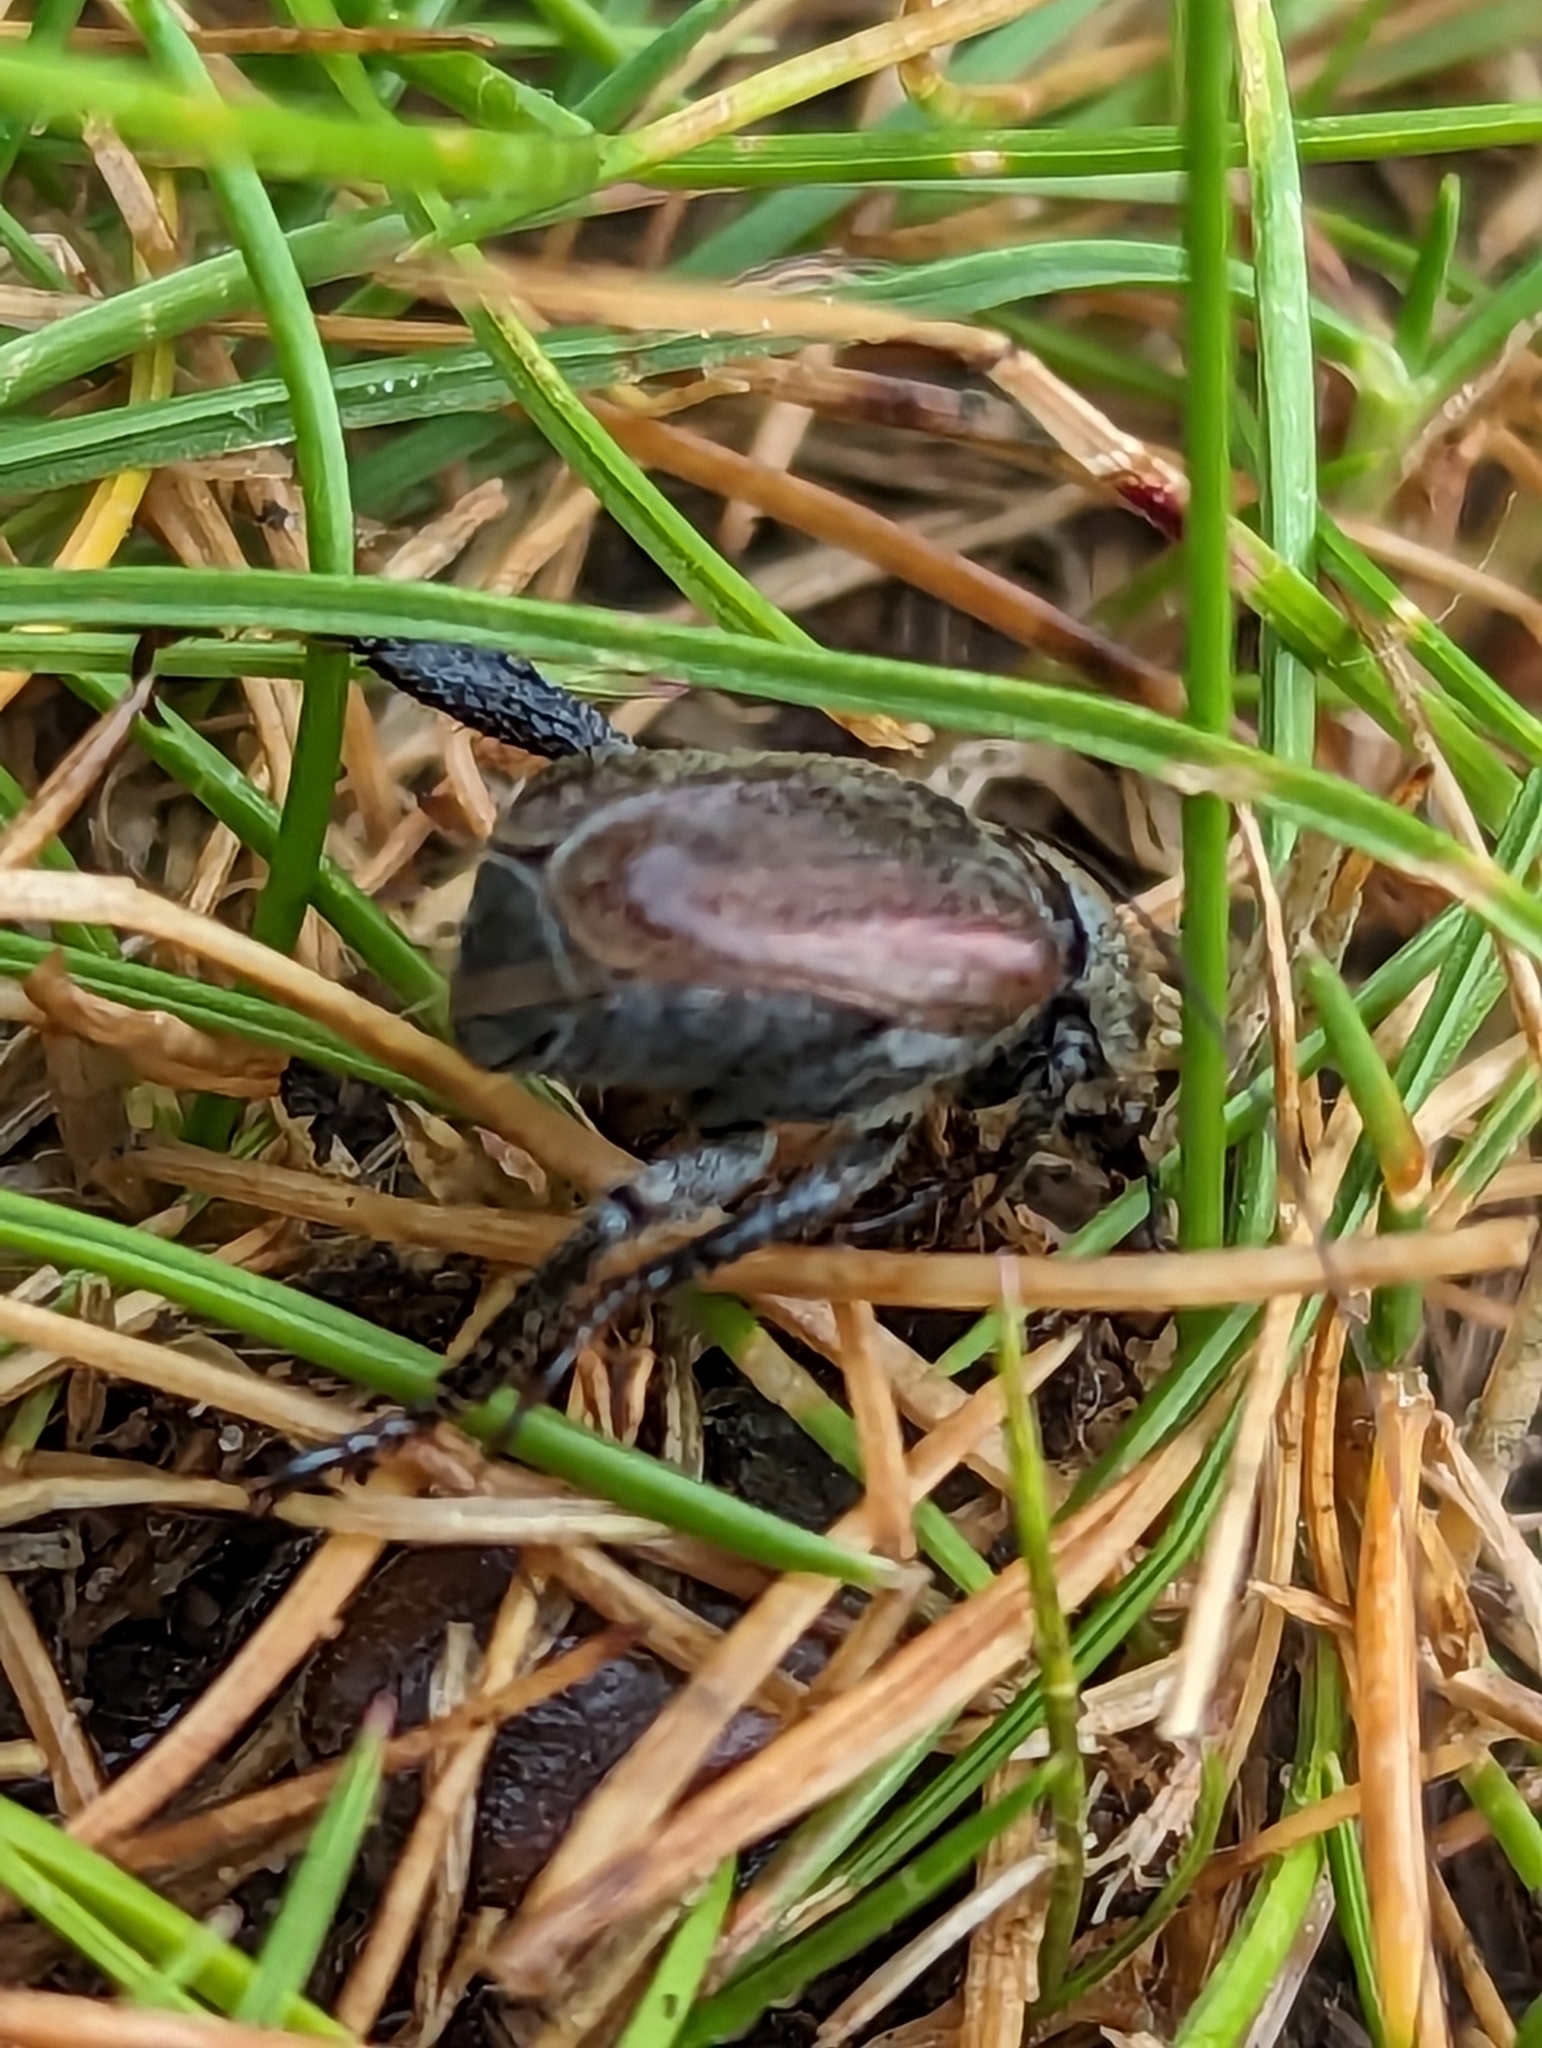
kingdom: Animalia
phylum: Arthropoda
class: Insecta
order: Coleoptera
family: Scarabaeidae
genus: Hoplia
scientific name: Hoplia philanthus
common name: Welsh chafer
